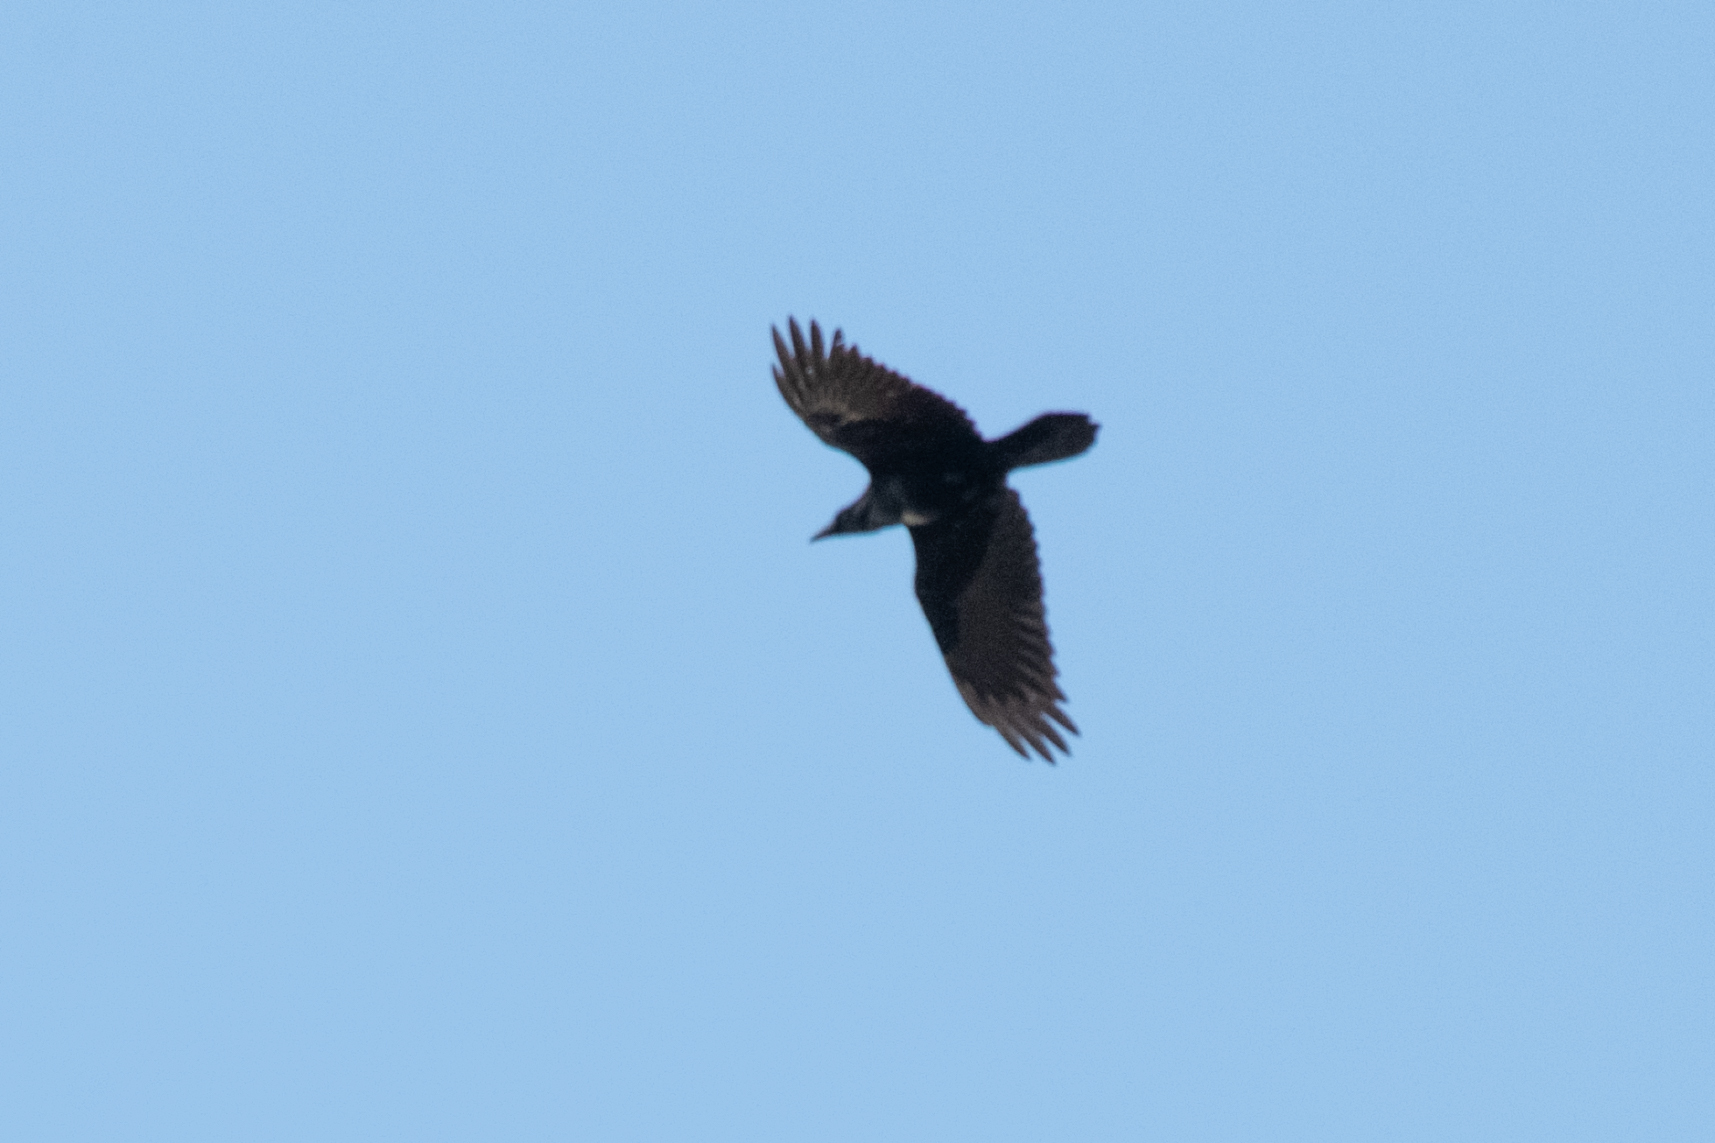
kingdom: Animalia
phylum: Chordata
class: Aves
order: Passeriformes
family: Corvidae
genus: Corvus
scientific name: Corvus corax
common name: Common raven
